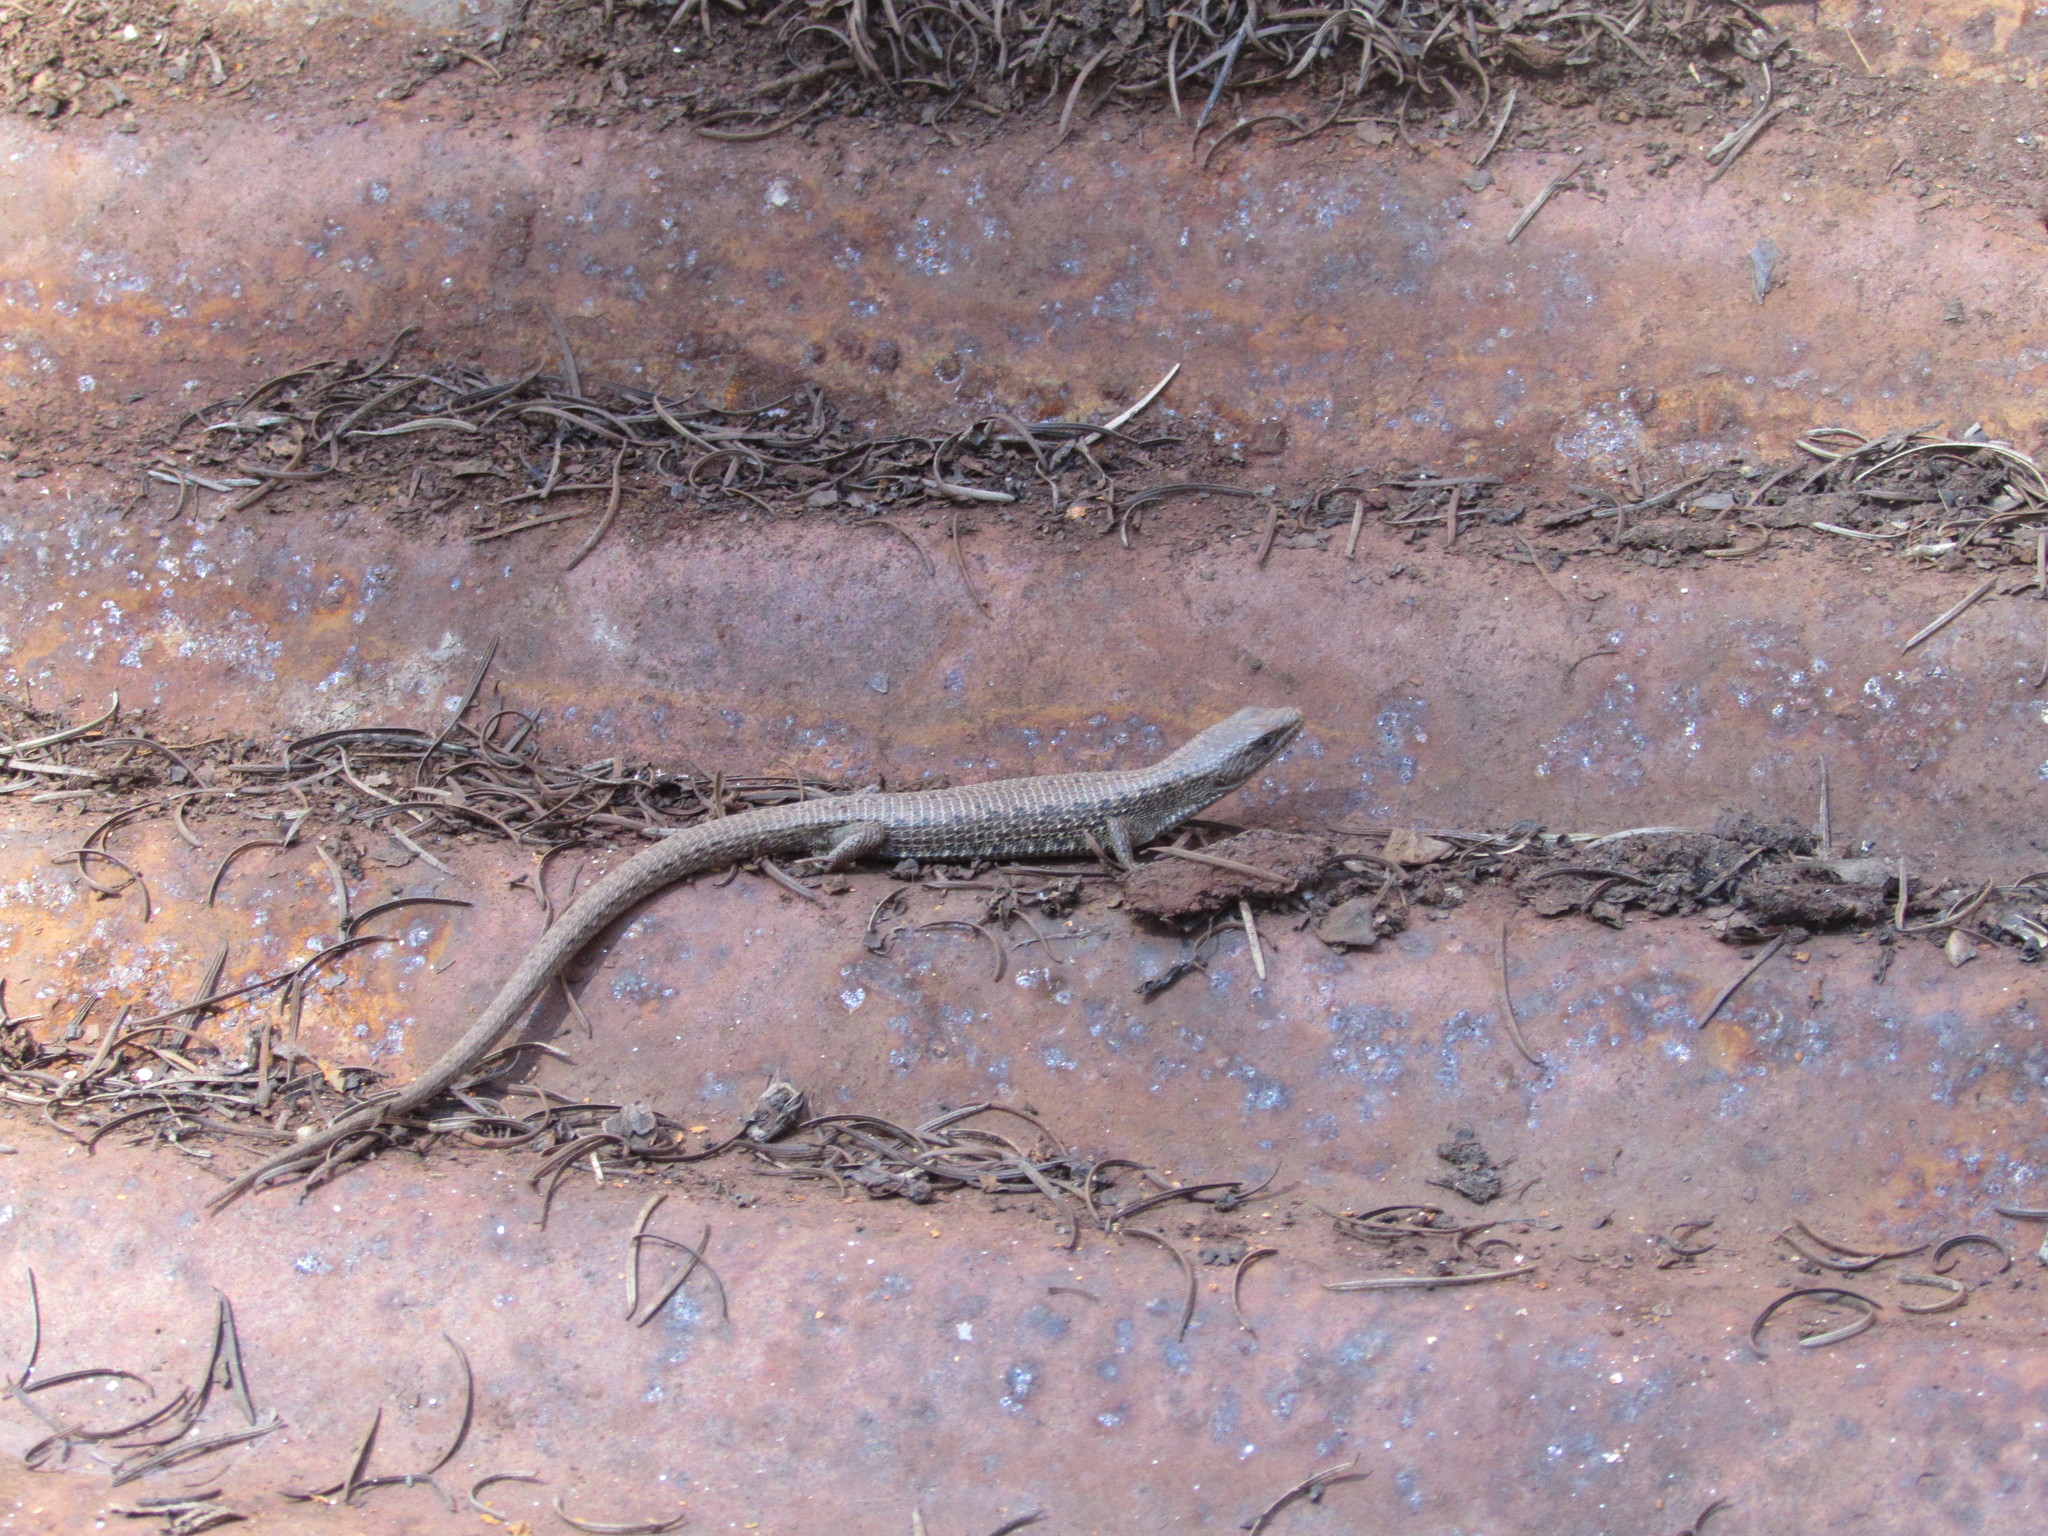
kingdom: Animalia
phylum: Chordata
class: Squamata
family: Anguidae
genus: Elgaria
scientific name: Elgaria coerulea
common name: Northern alligator lizard
